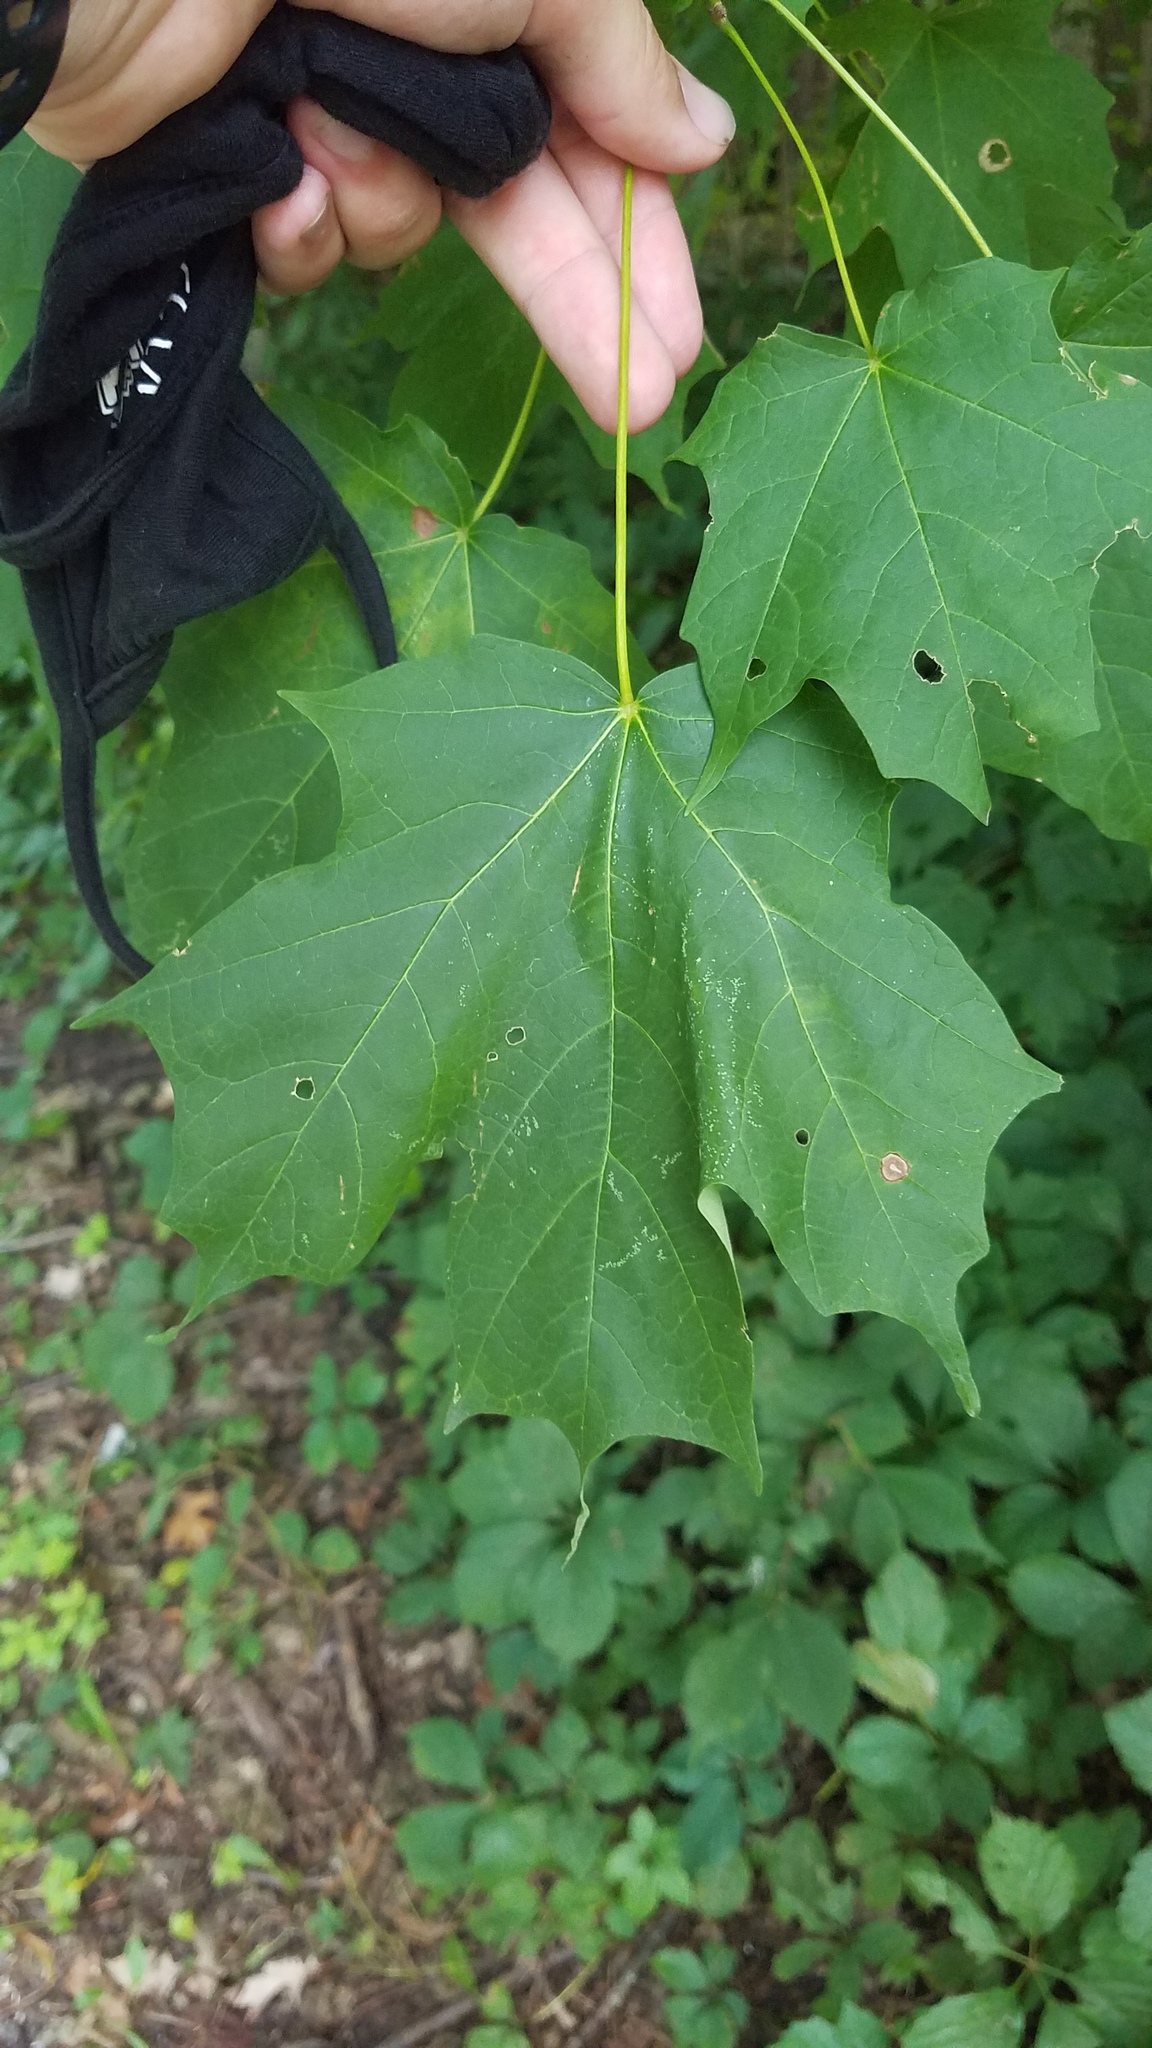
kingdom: Plantae
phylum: Tracheophyta
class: Magnoliopsida
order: Sapindales
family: Sapindaceae
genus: Acer
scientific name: Acer saccharum
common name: Sugar maple
